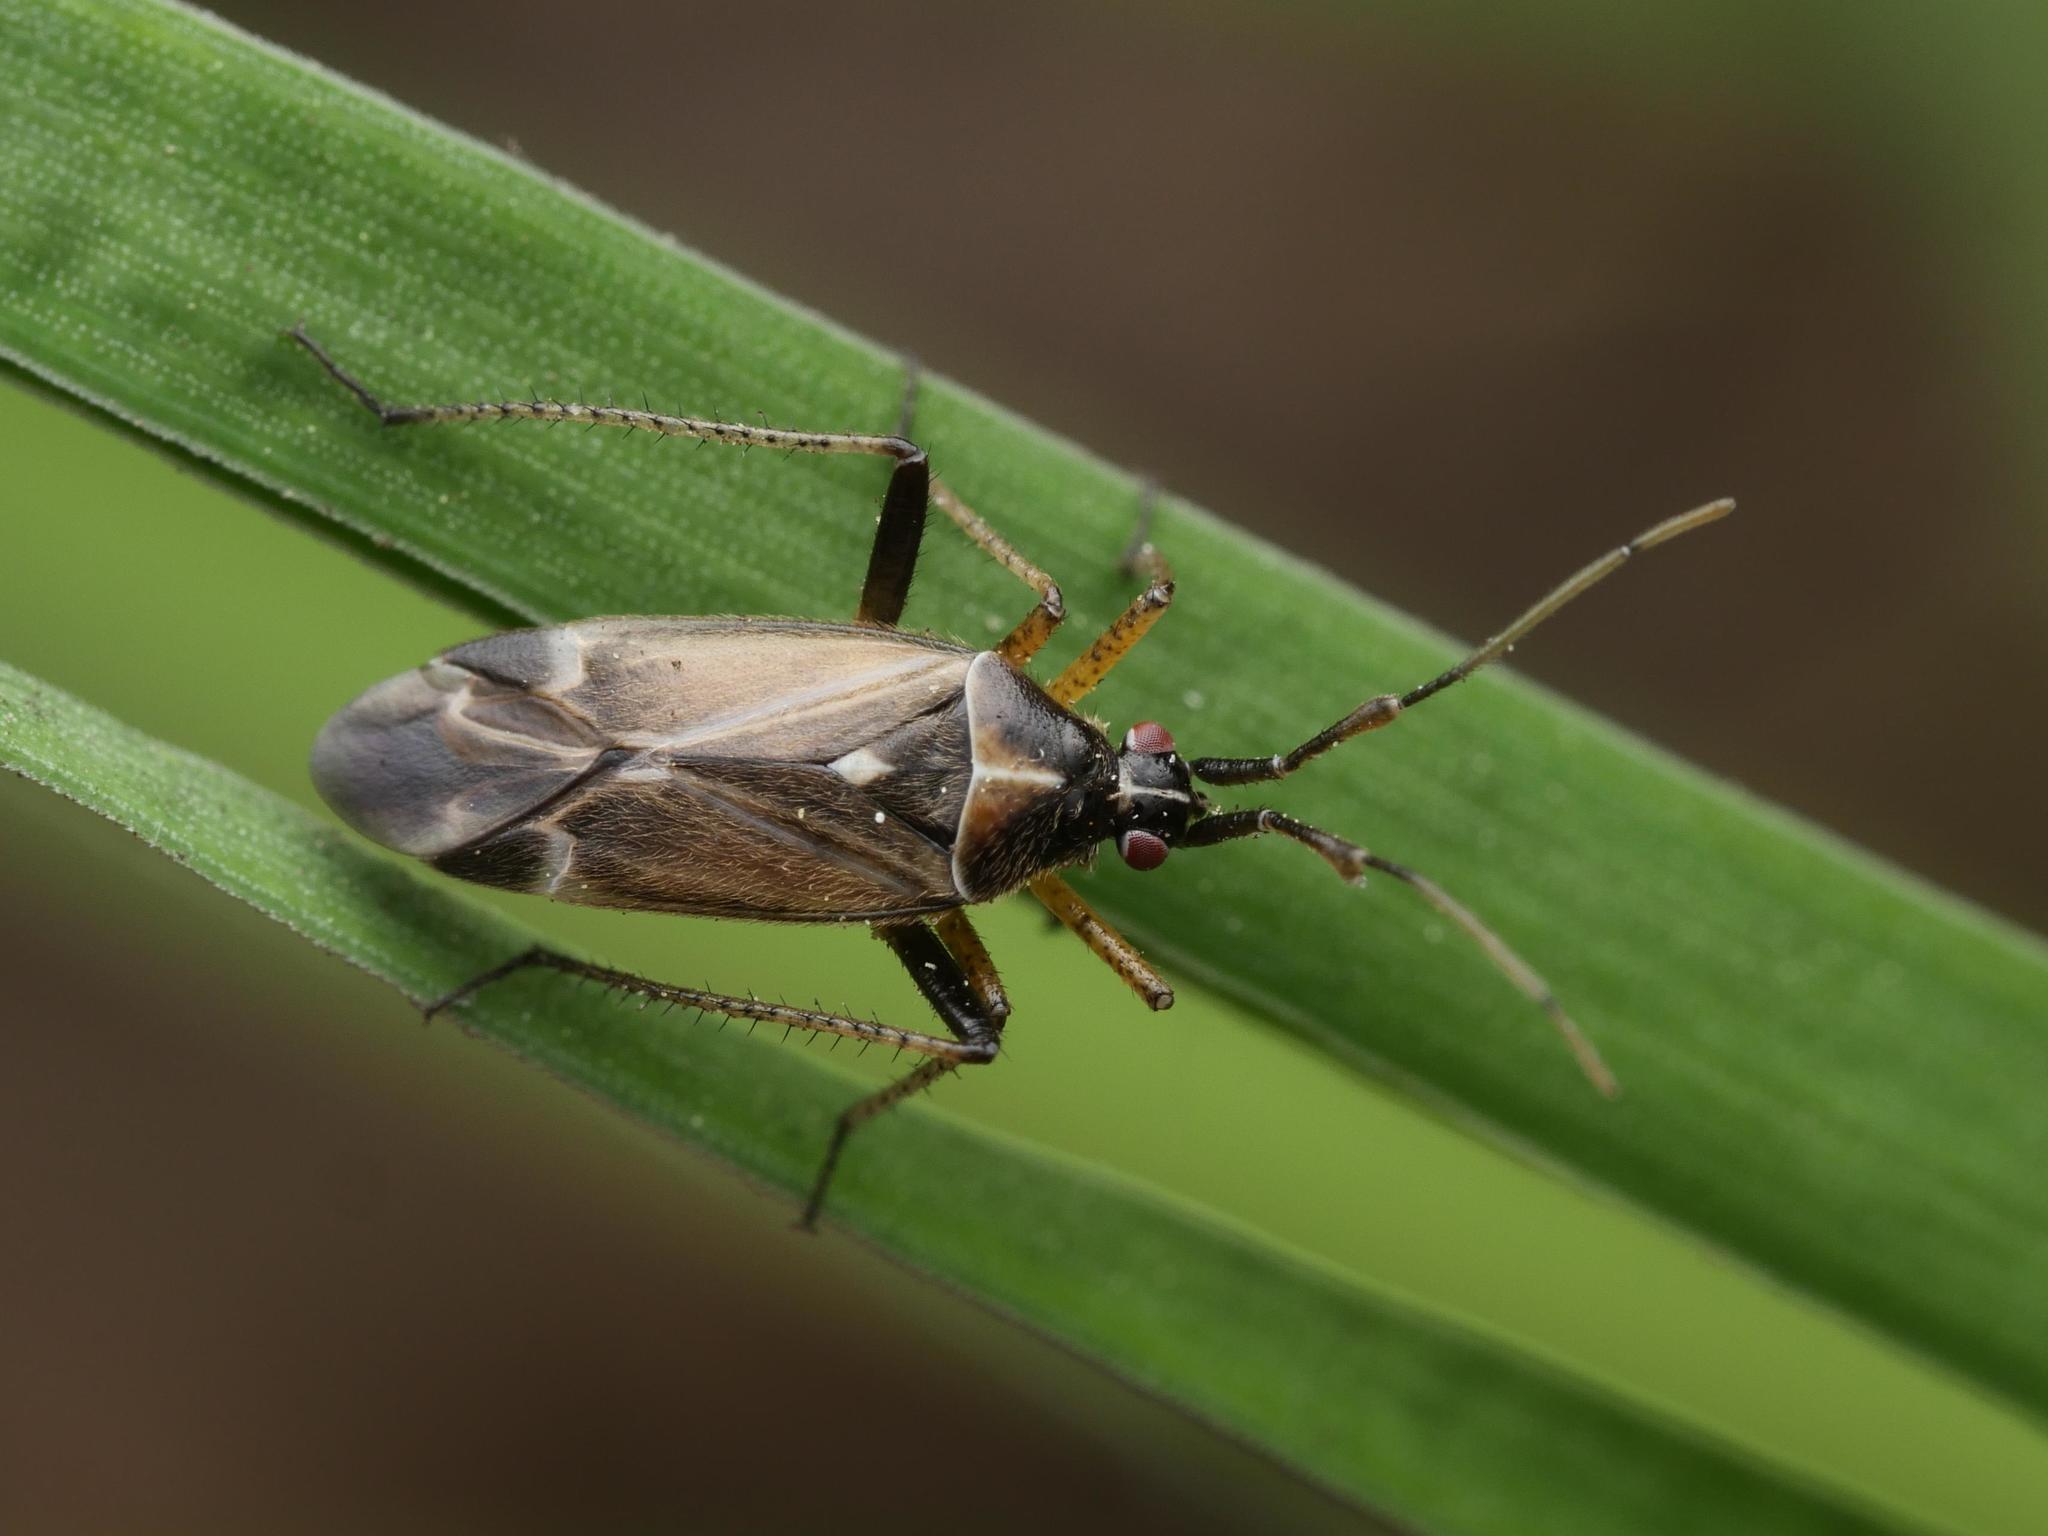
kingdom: Animalia
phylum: Arthropoda
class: Insecta
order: Hemiptera
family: Miridae
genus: Harpocera
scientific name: Harpocera thoracica
